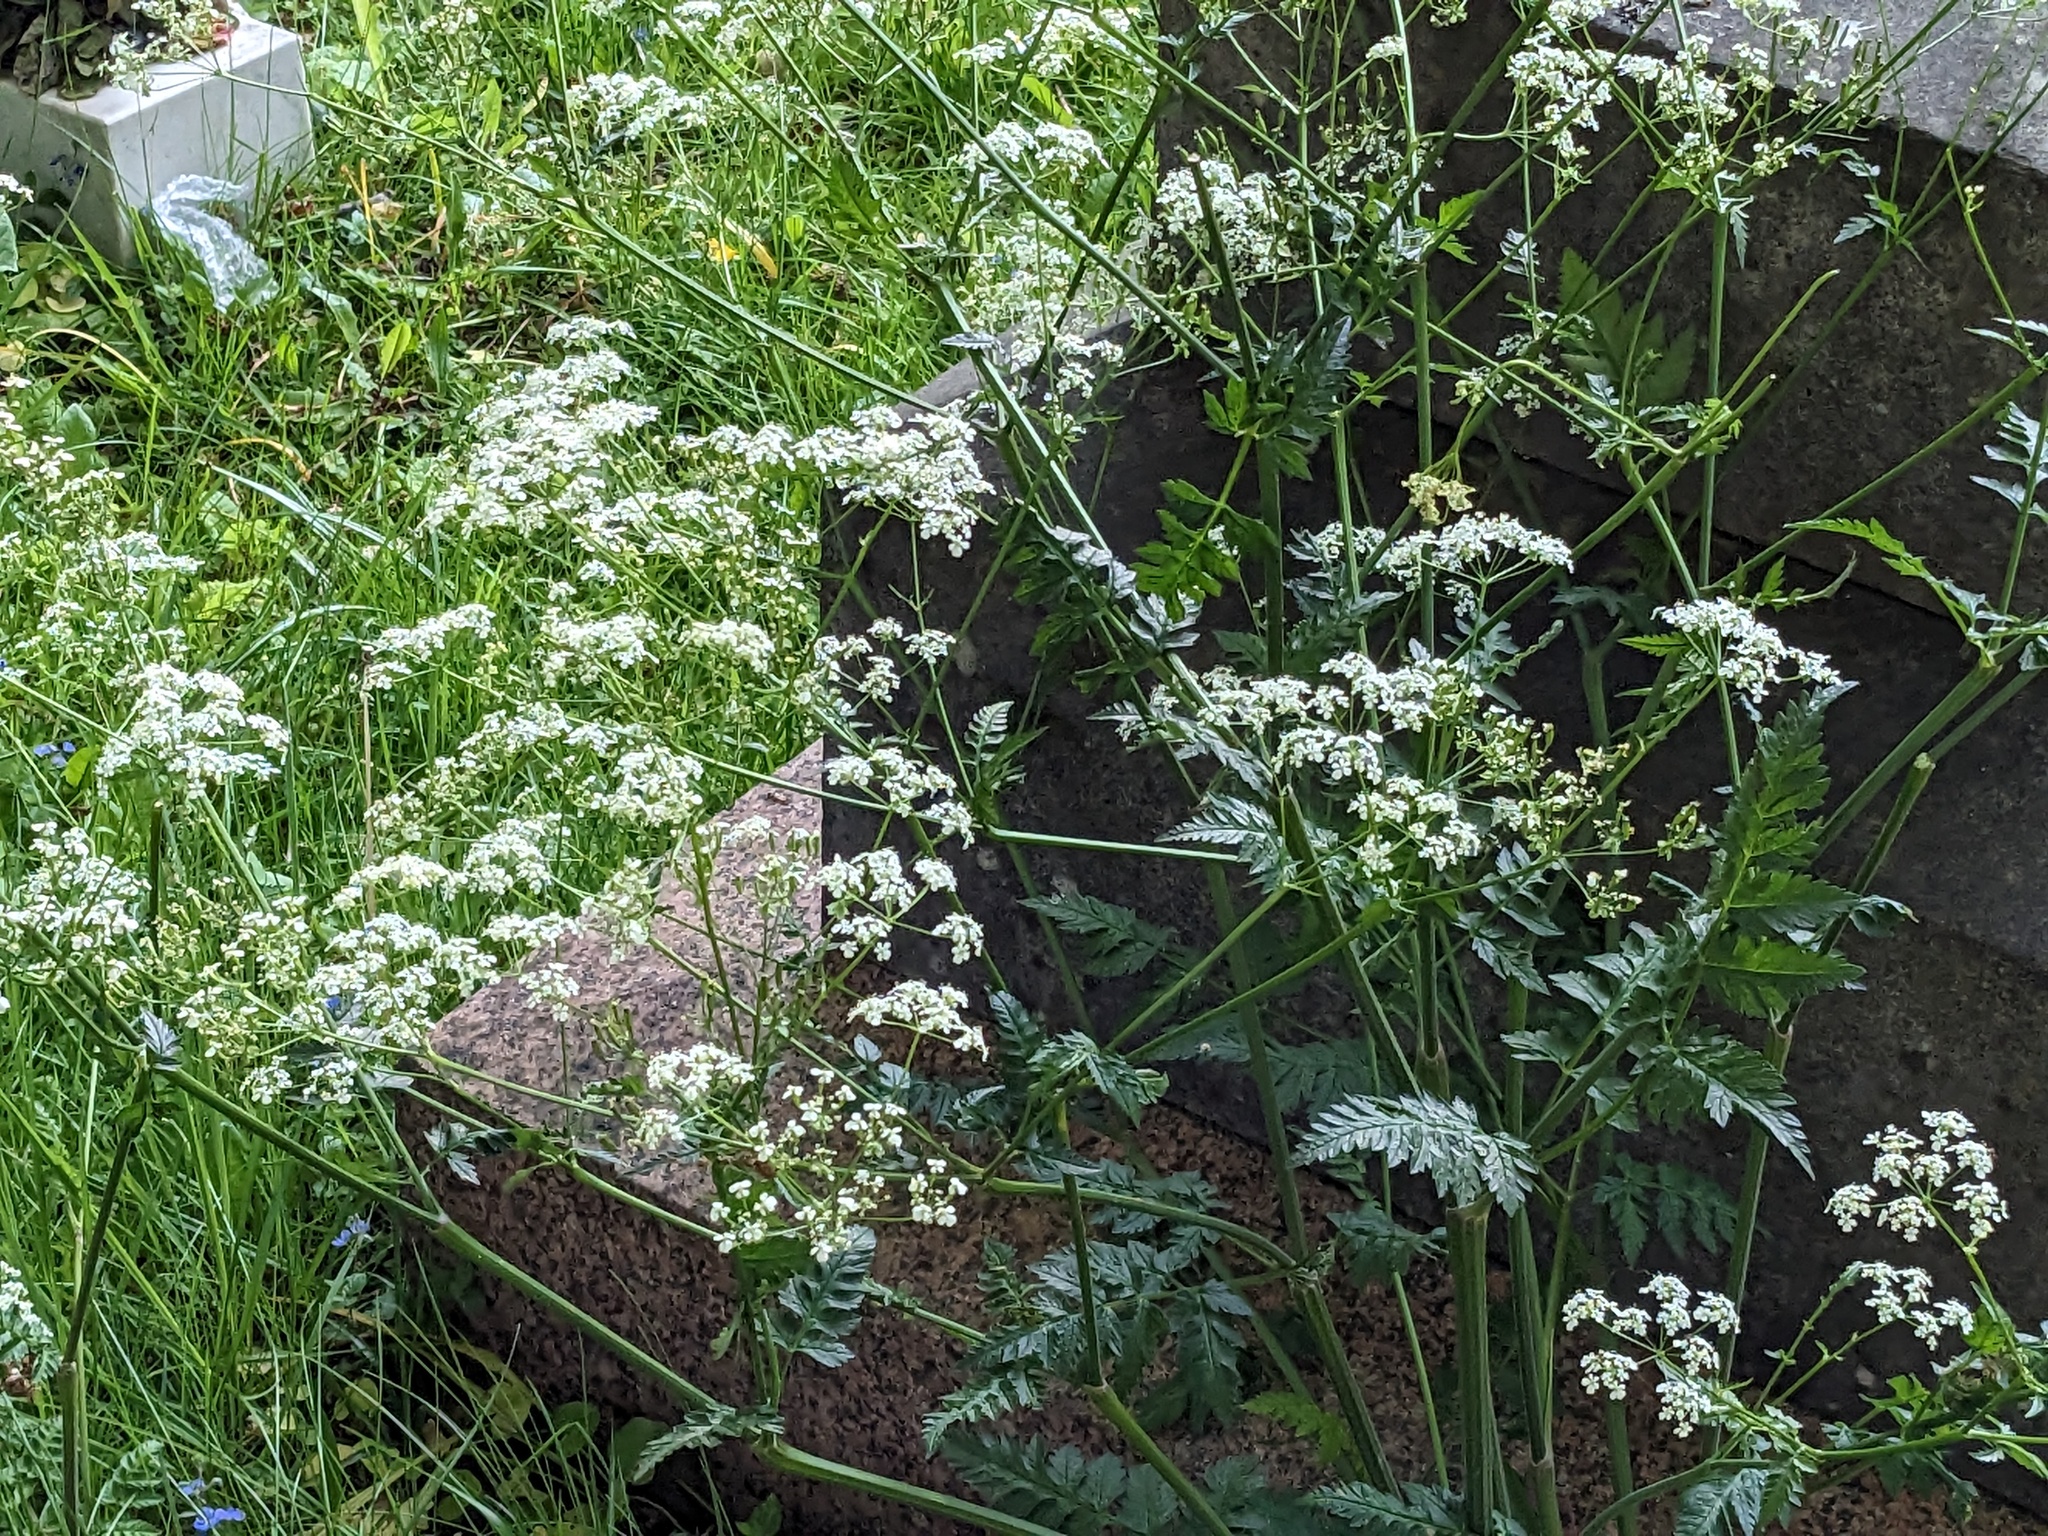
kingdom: Plantae
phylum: Tracheophyta
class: Magnoliopsida
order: Apiales
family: Apiaceae
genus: Anthriscus
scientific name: Anthriscus sylvestris
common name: Cow parsley
